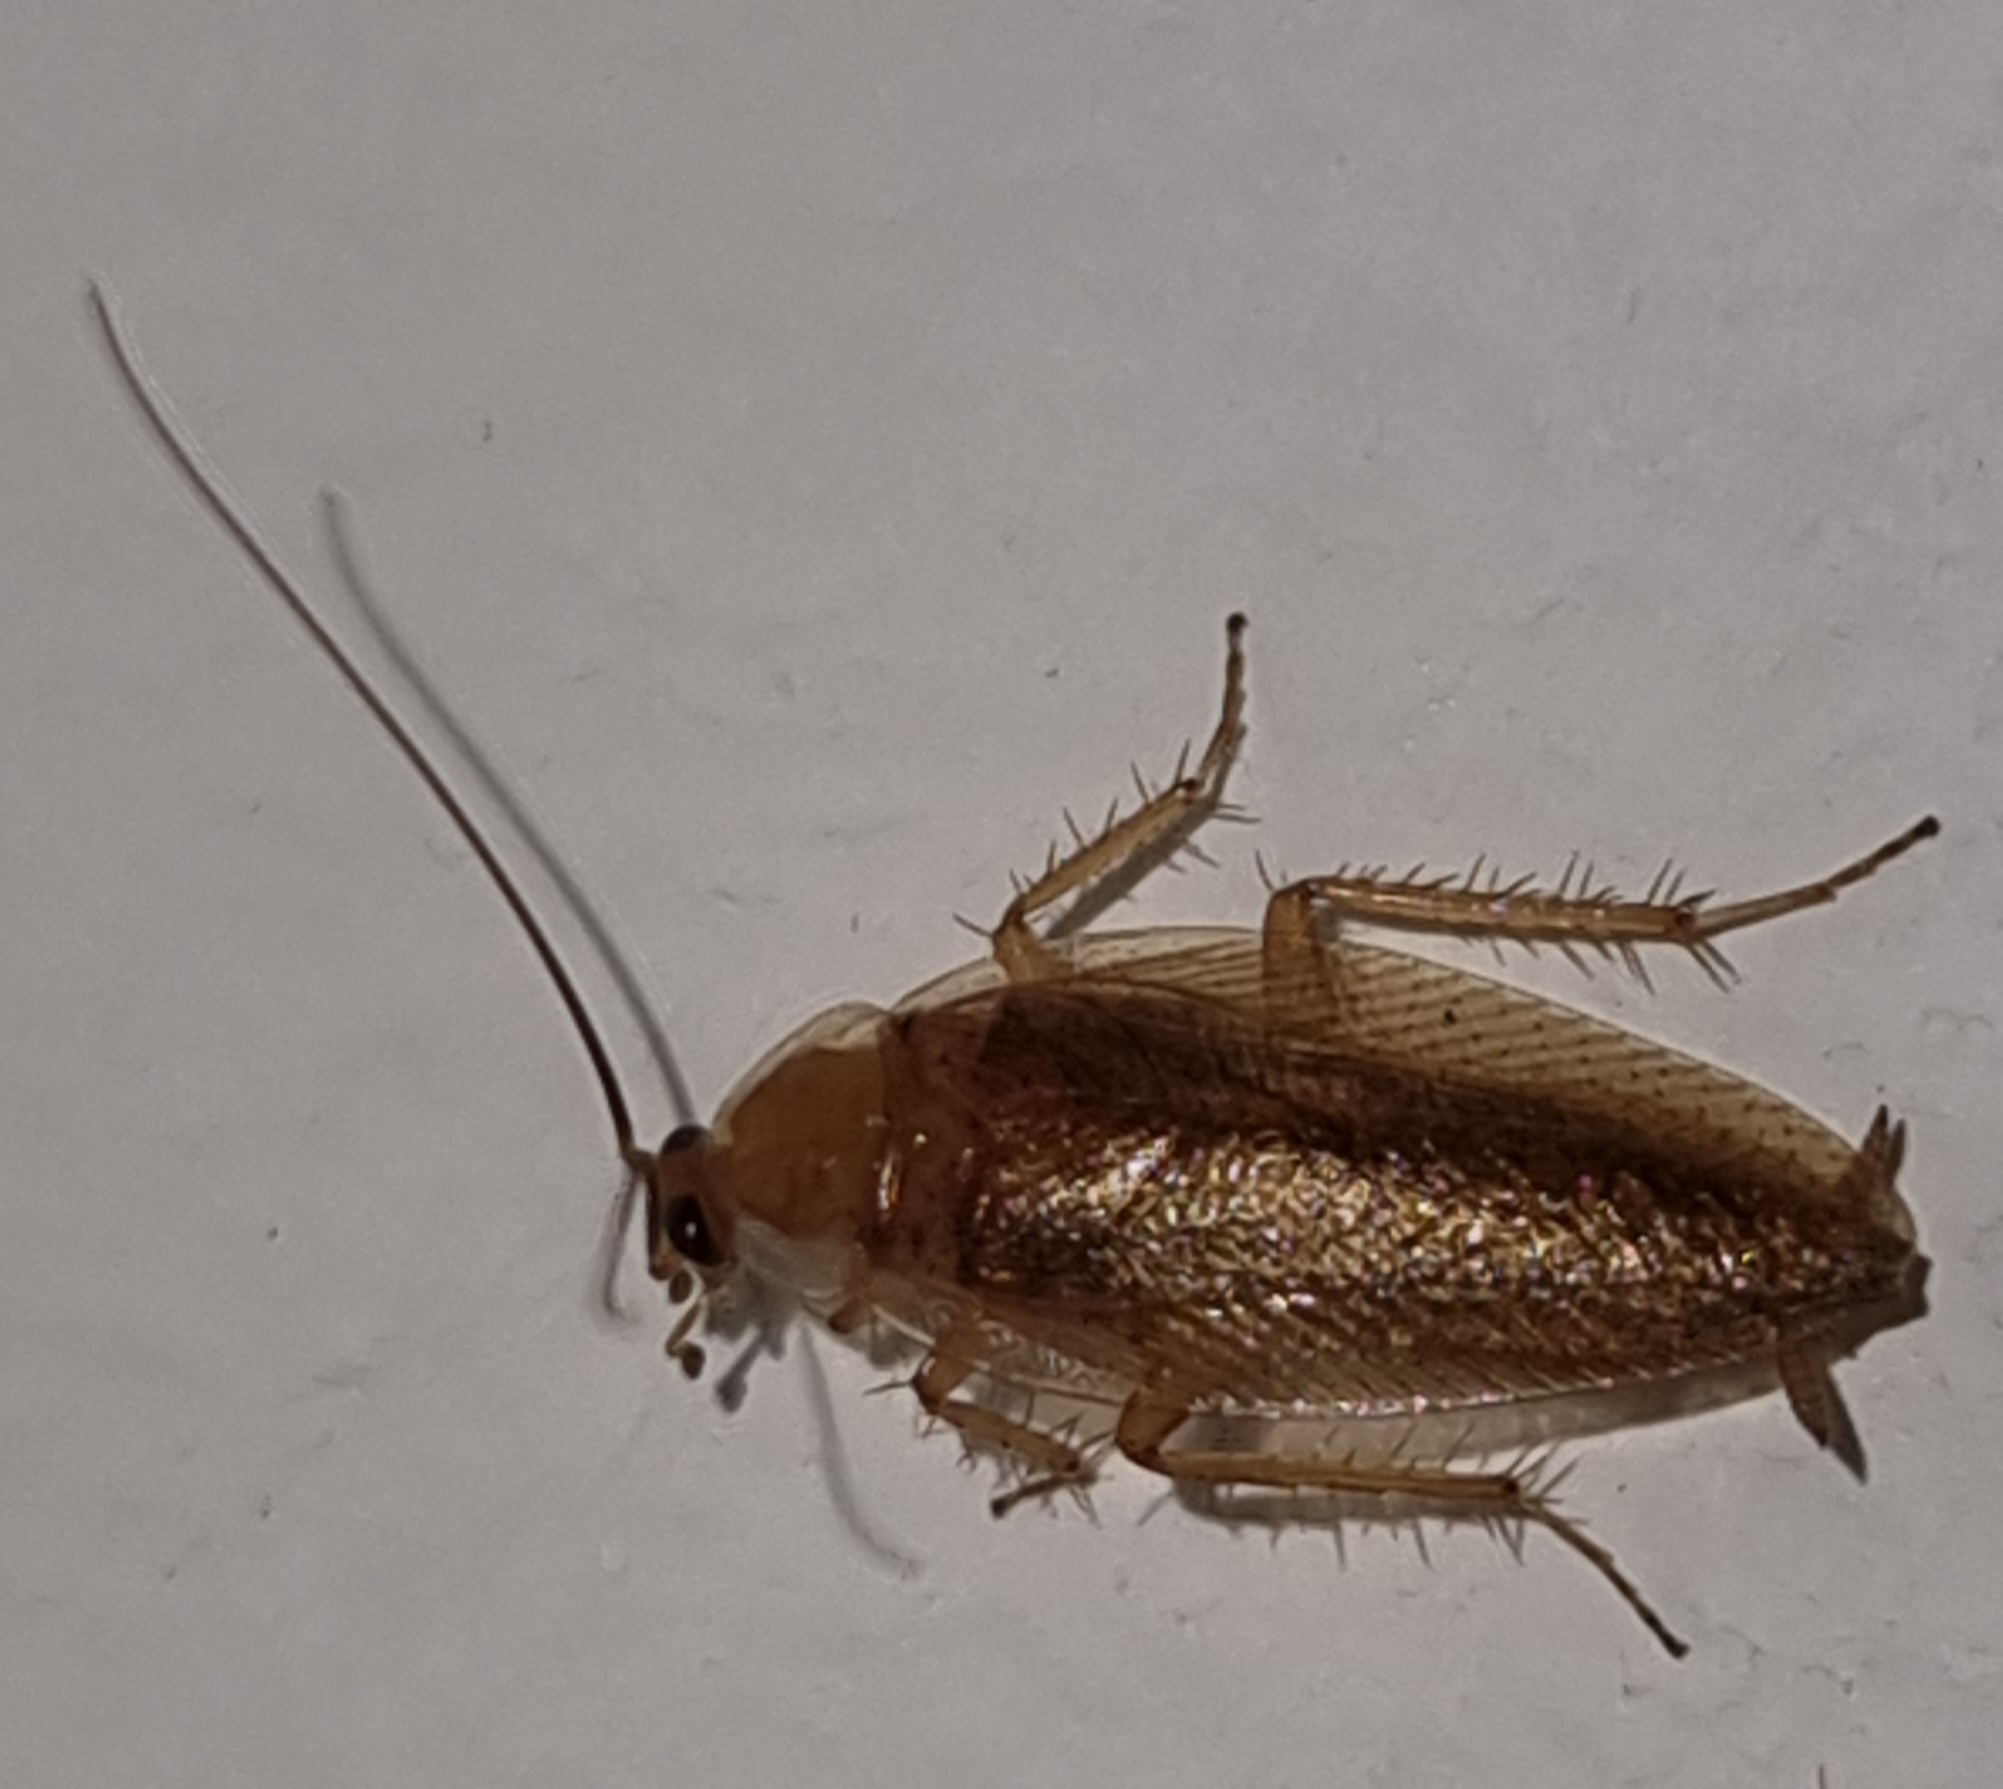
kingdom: Animalia
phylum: Arthropoda
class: Insecta
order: Blattodea
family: Ectobiidae
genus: Ectobius
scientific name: Ectobius vittiventris
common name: Garden cockroach
